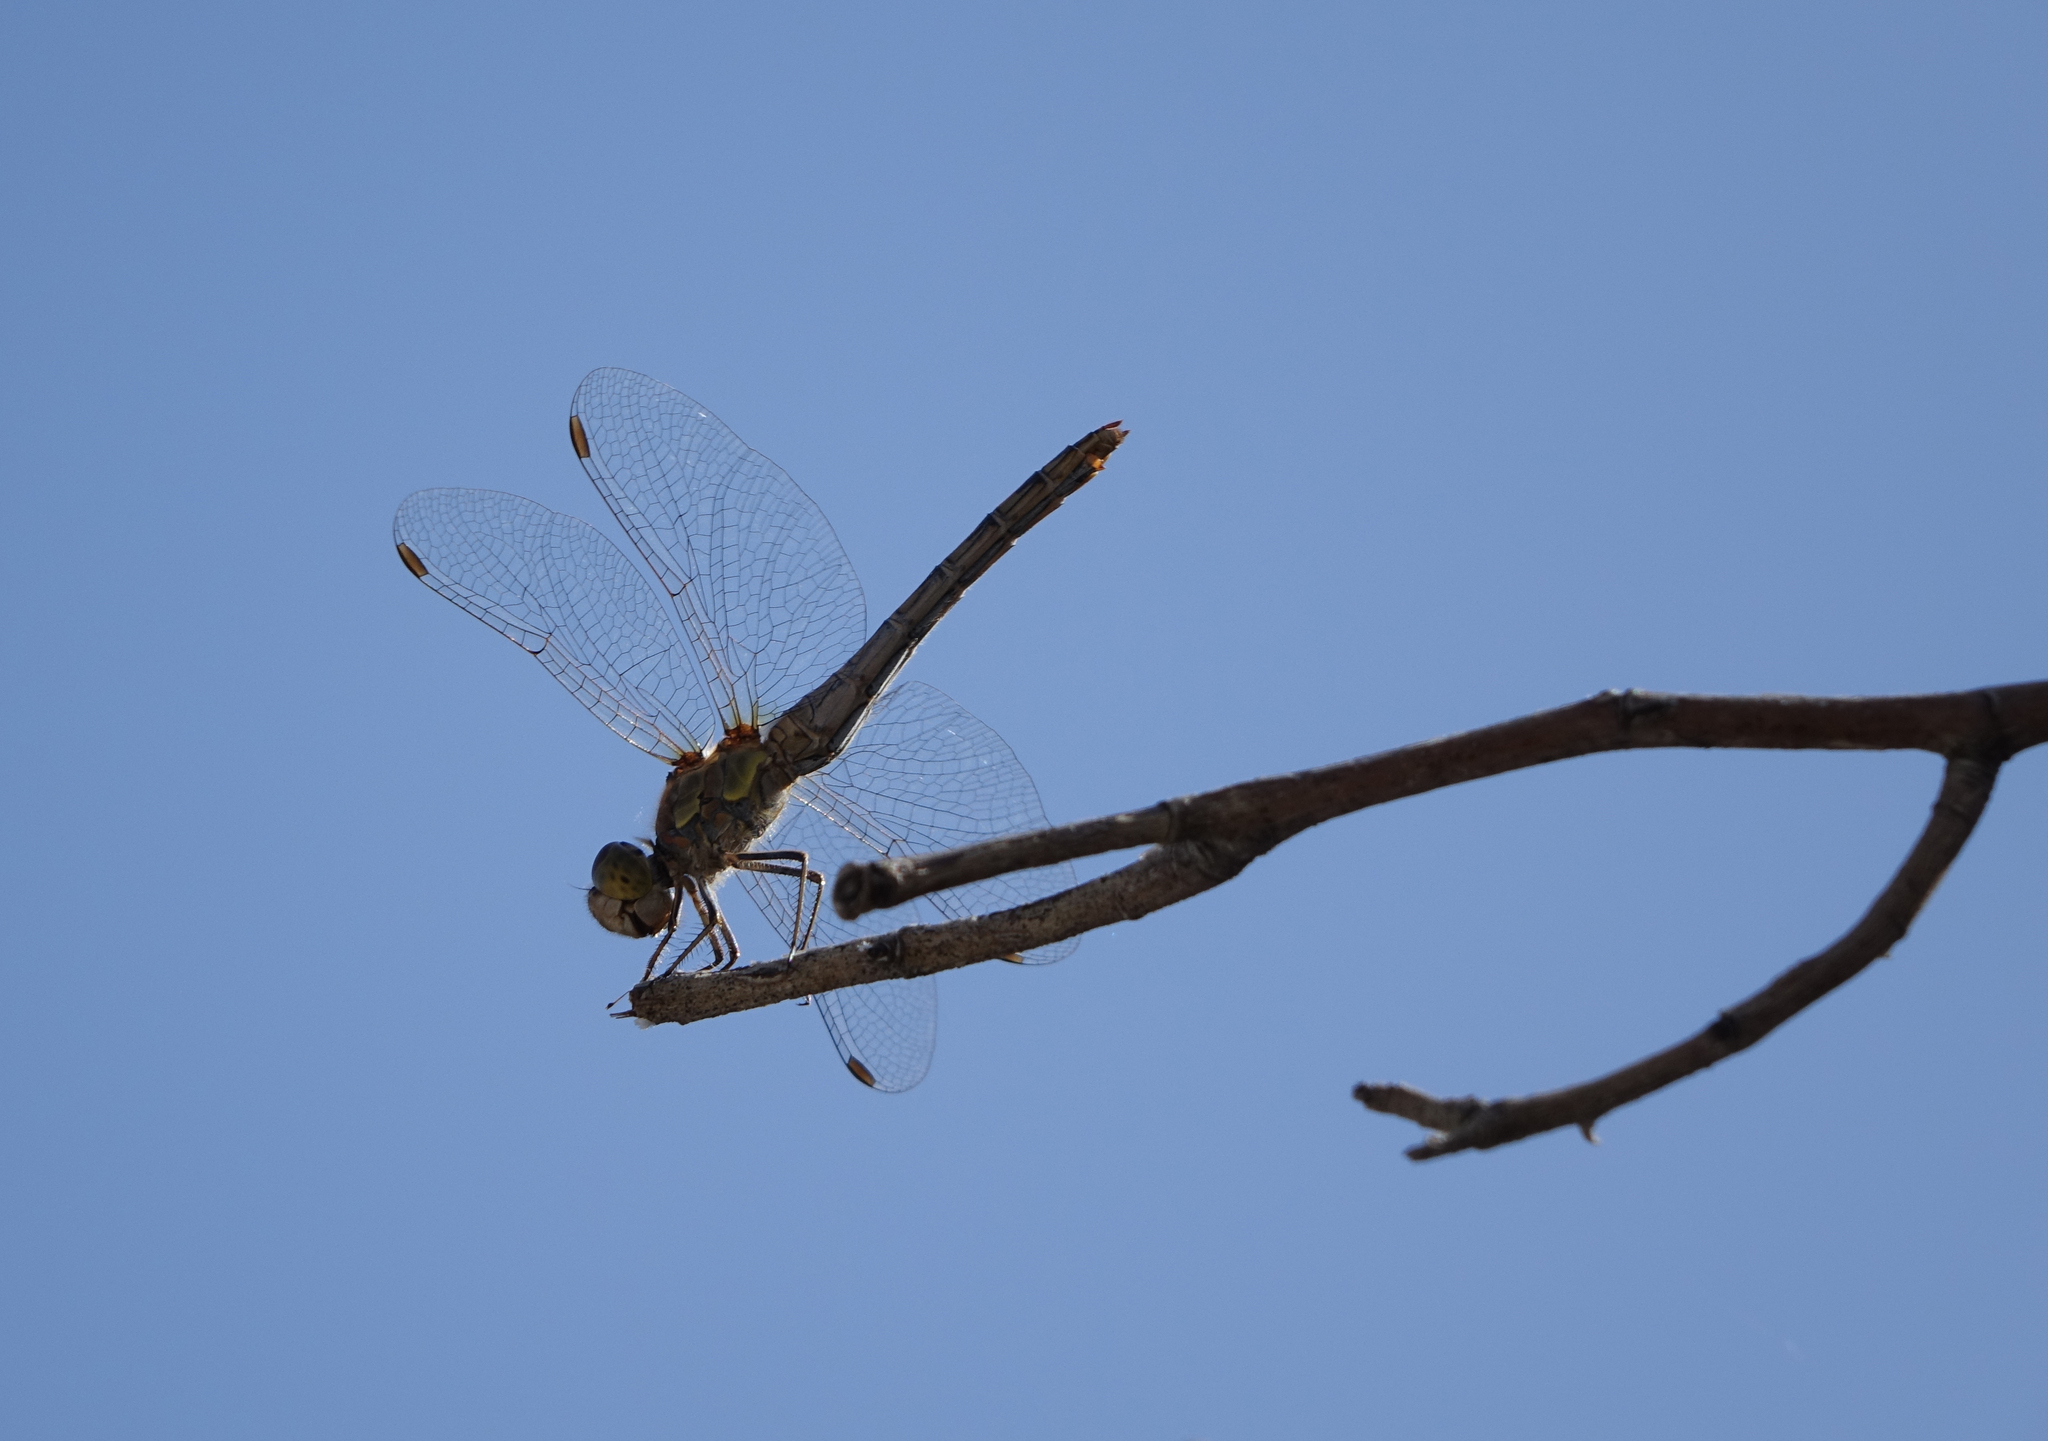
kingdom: Animalia
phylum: Arthropoda
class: Insecta
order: Odonata
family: Libellulidae
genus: Sympetrum
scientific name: Sympetrum striolatum
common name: Common darter
